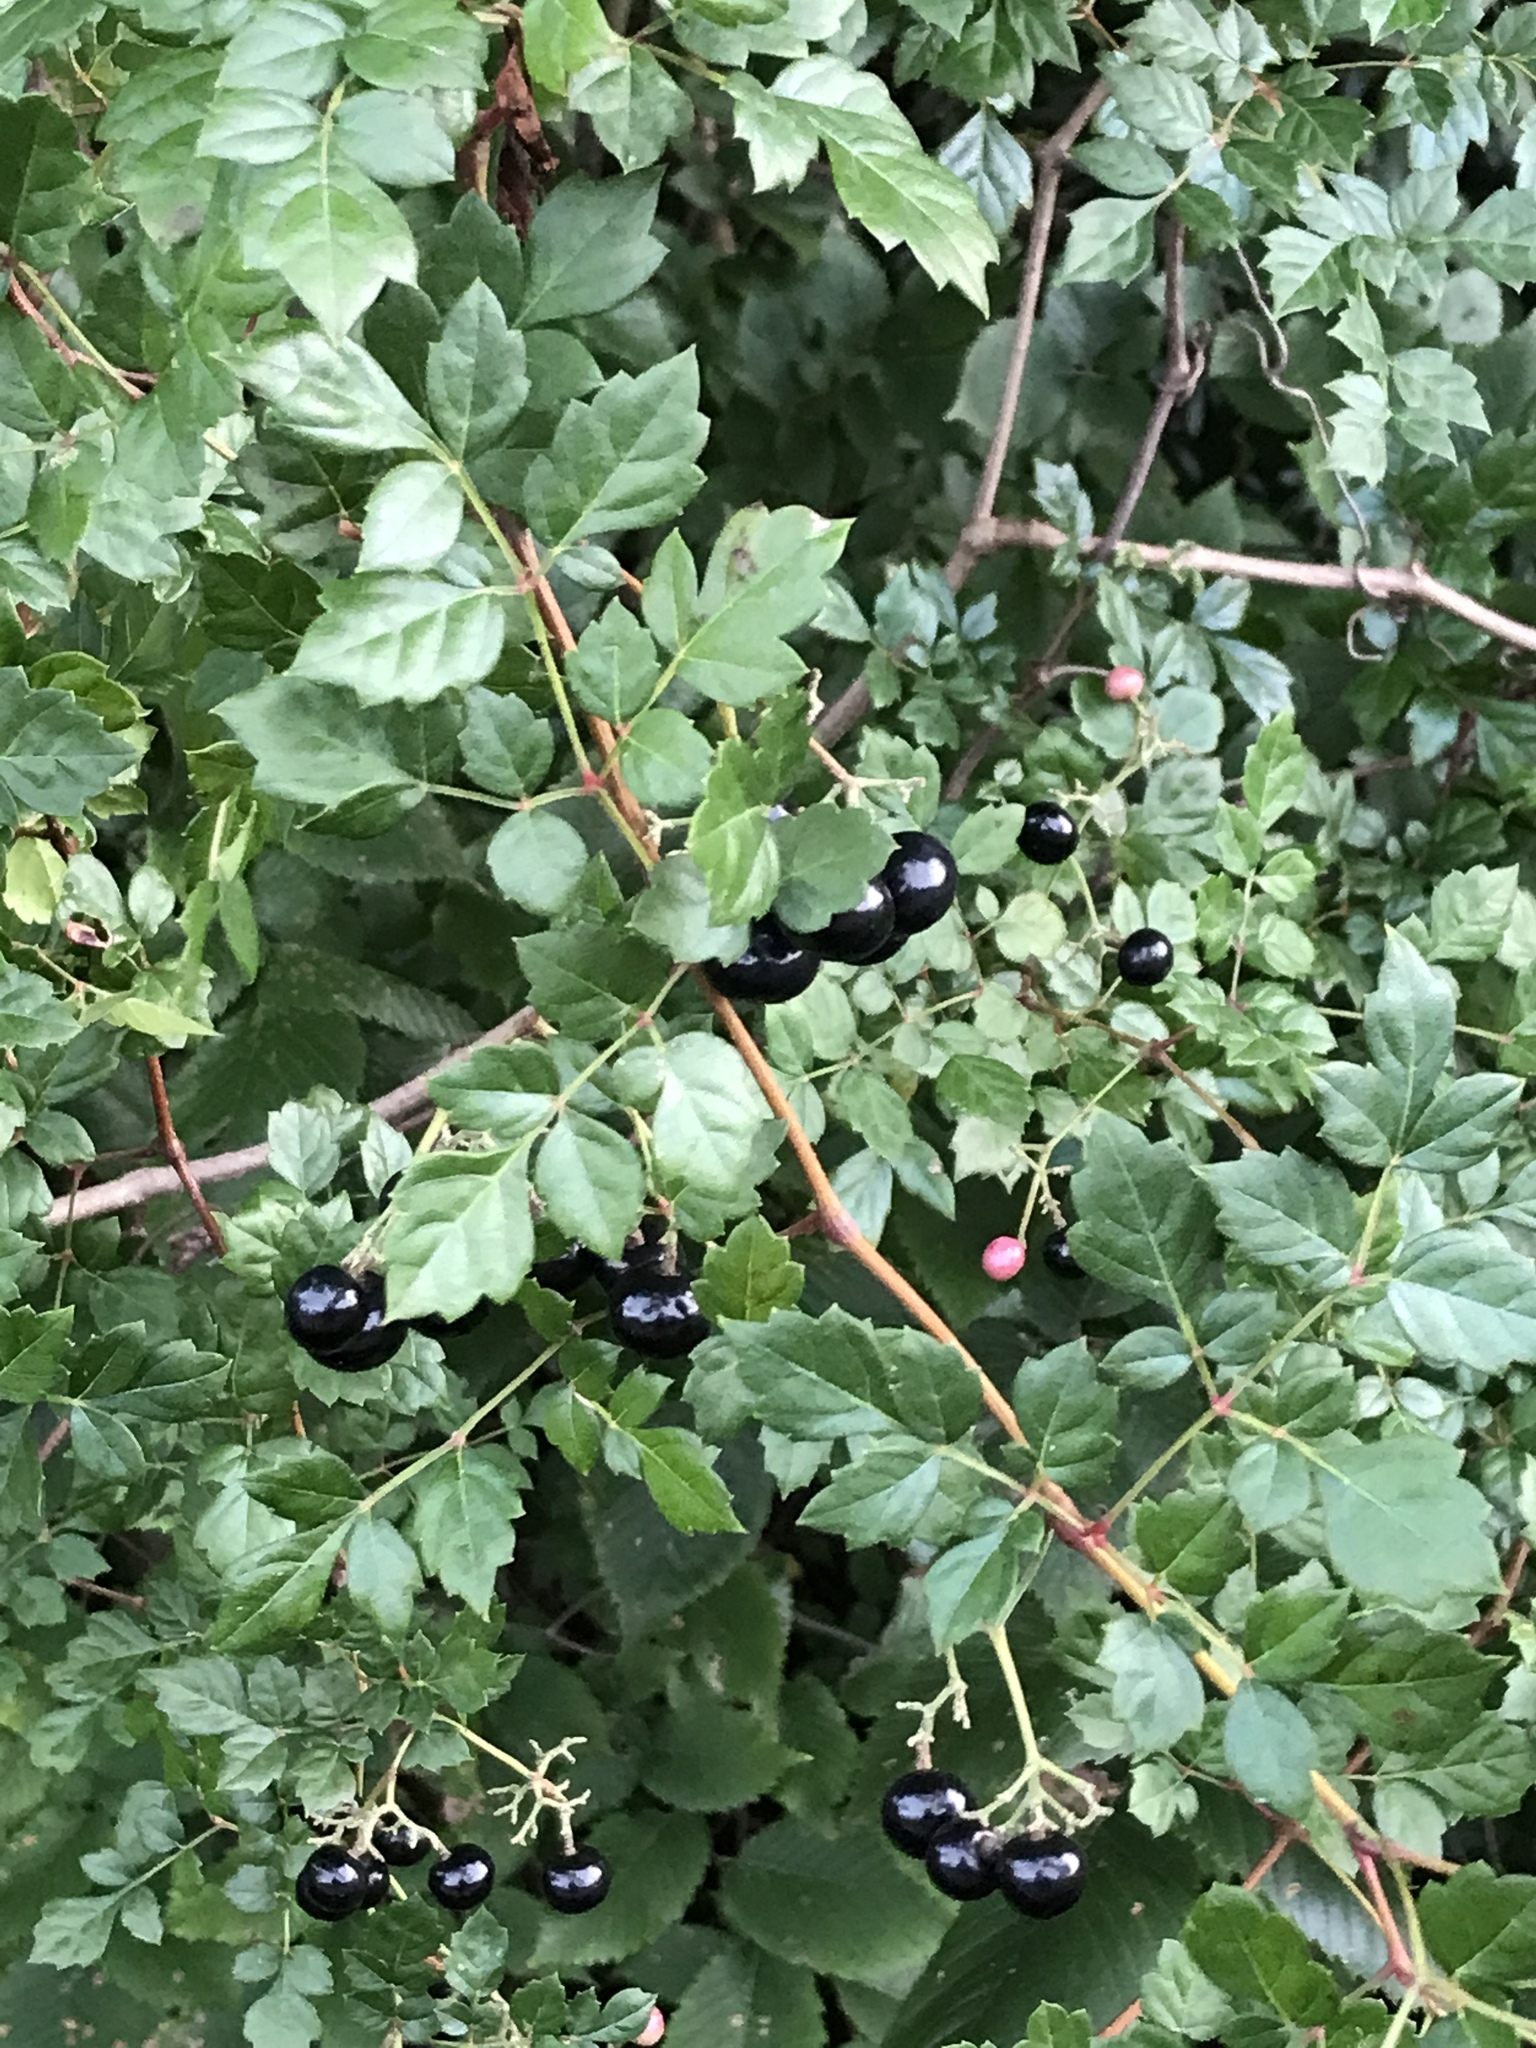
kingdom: Plantae
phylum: Tracheophyta
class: Magnoliopsida
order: Vitales
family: Vitaceae
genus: Nekemias
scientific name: Nekemias arborea
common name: Peppervine
